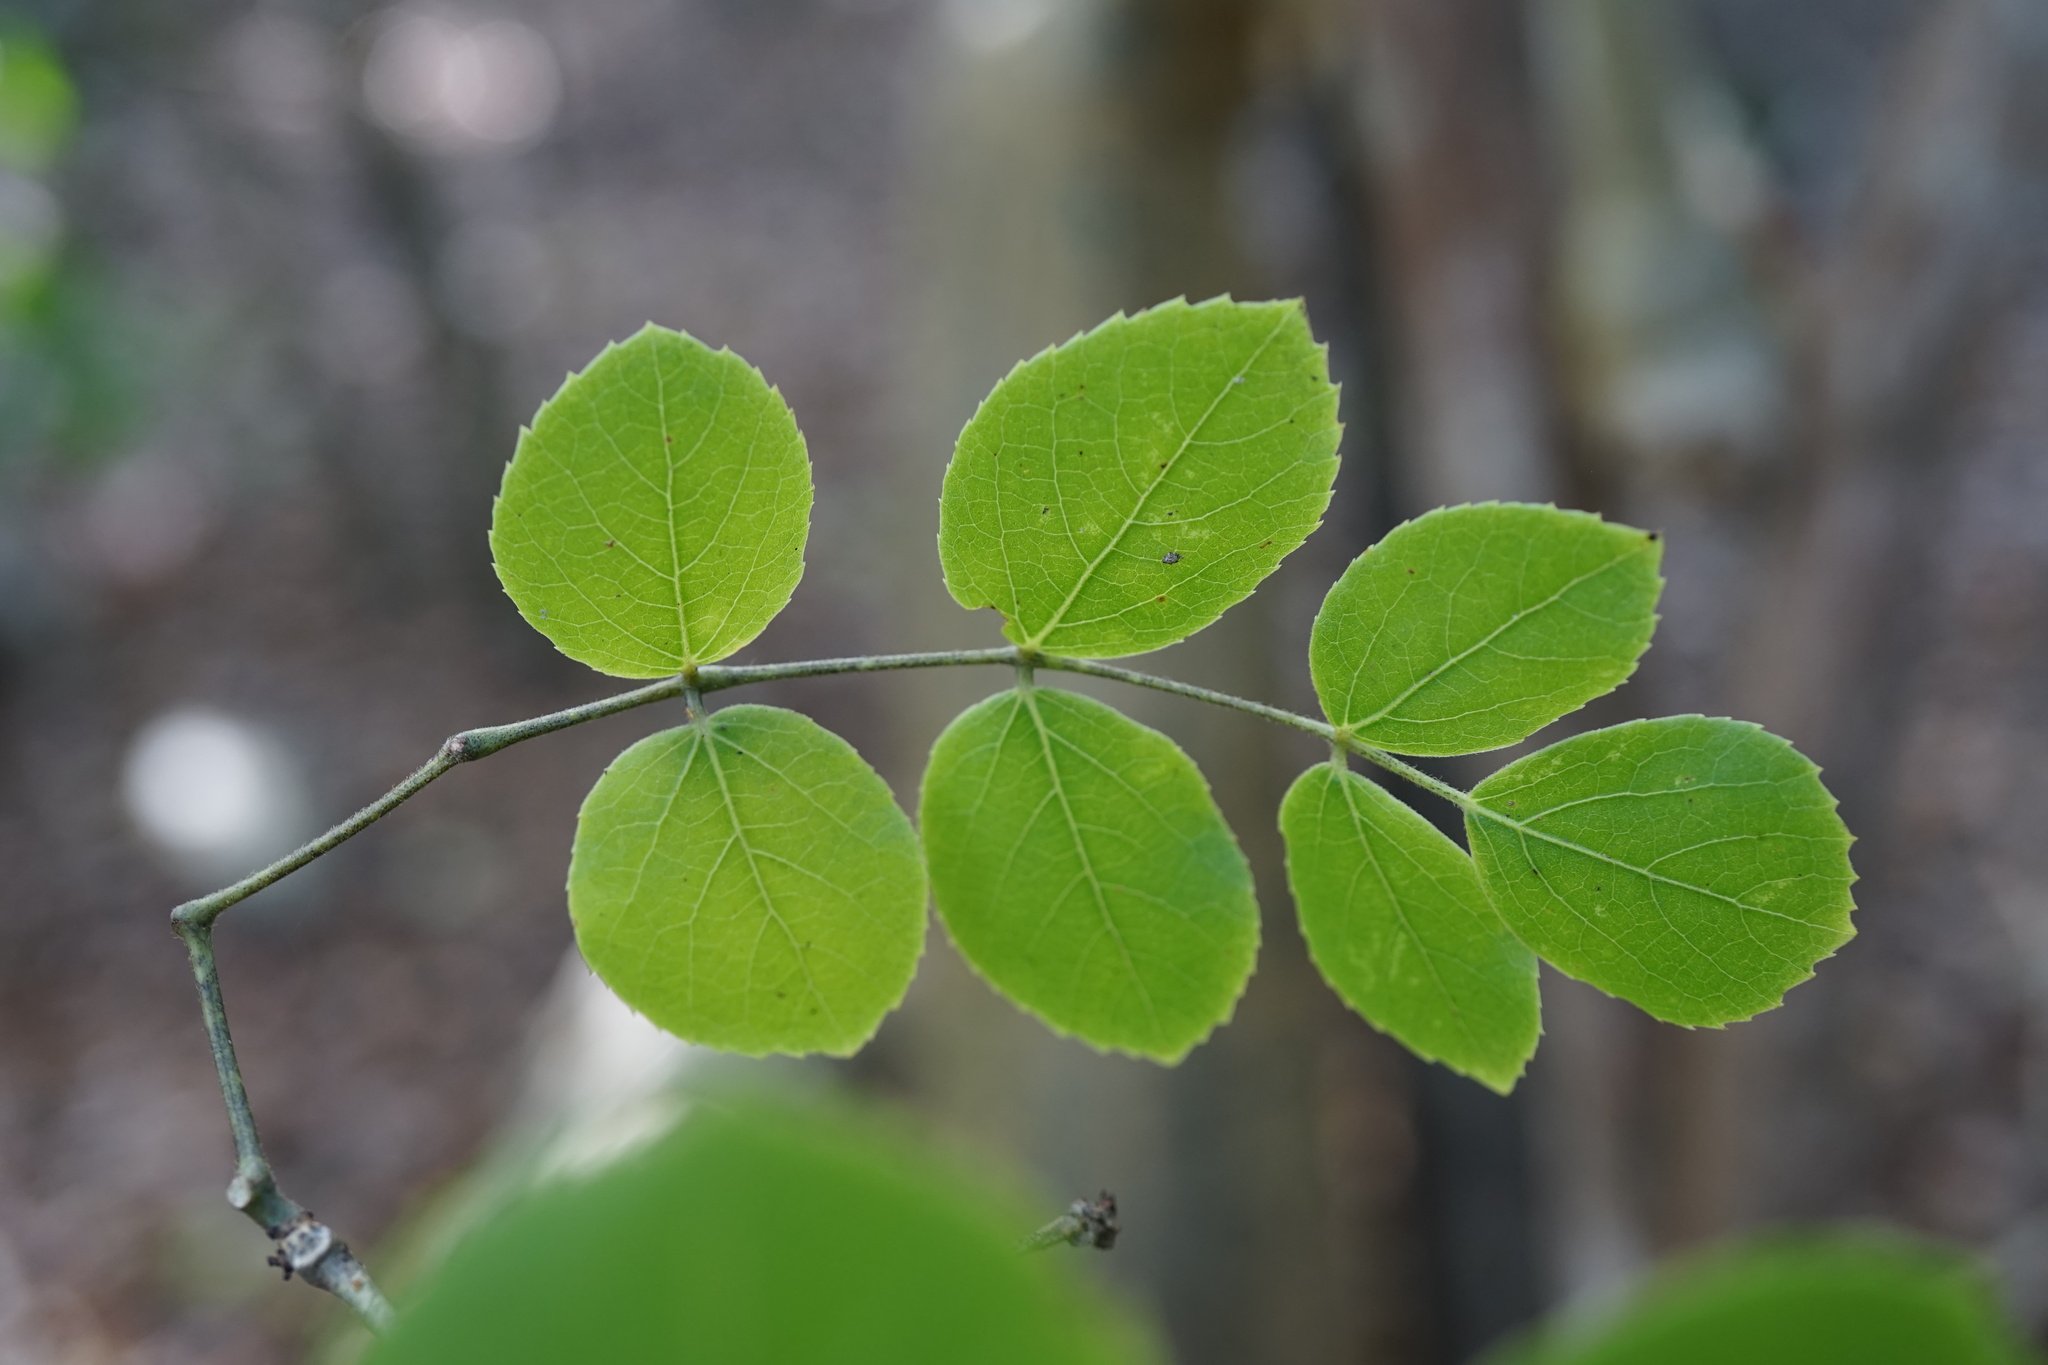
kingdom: Plantae
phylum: Tracheophyta
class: Magnoliopsida
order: Vitales
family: Vitaceae
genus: Cyphostemma
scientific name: Cyphostemma darainense
